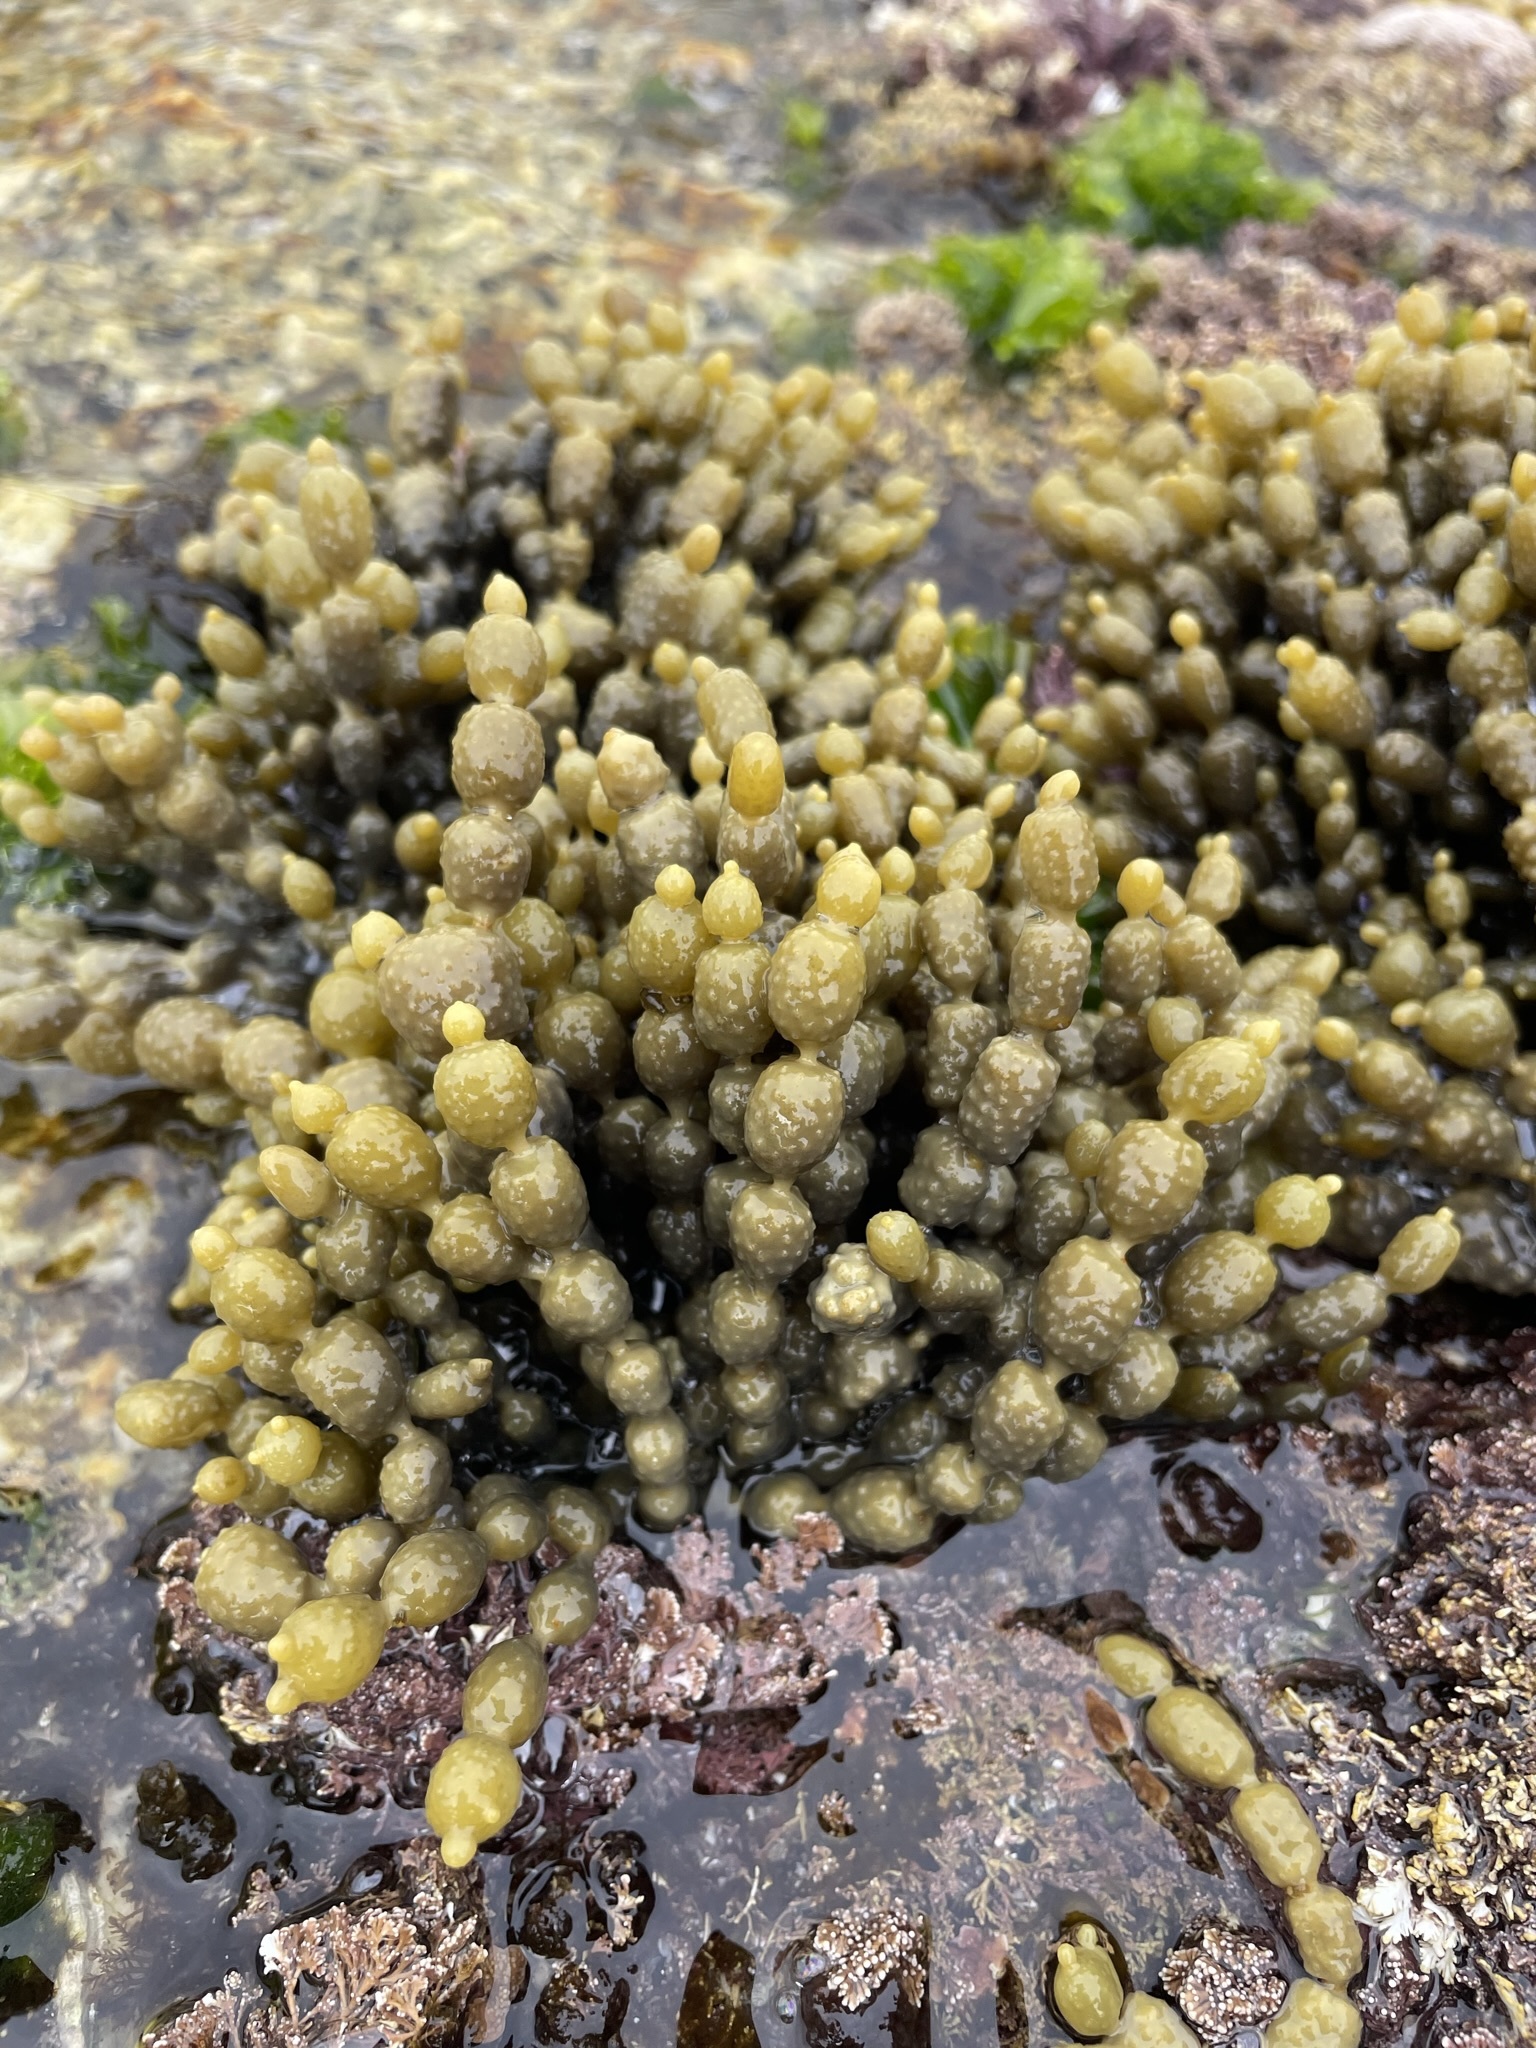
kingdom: Chromista
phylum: Ochrophyta
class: Phaeophyceae
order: Fucales
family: Hormosiraceae
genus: Hormosira
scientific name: Hormosira banksii
